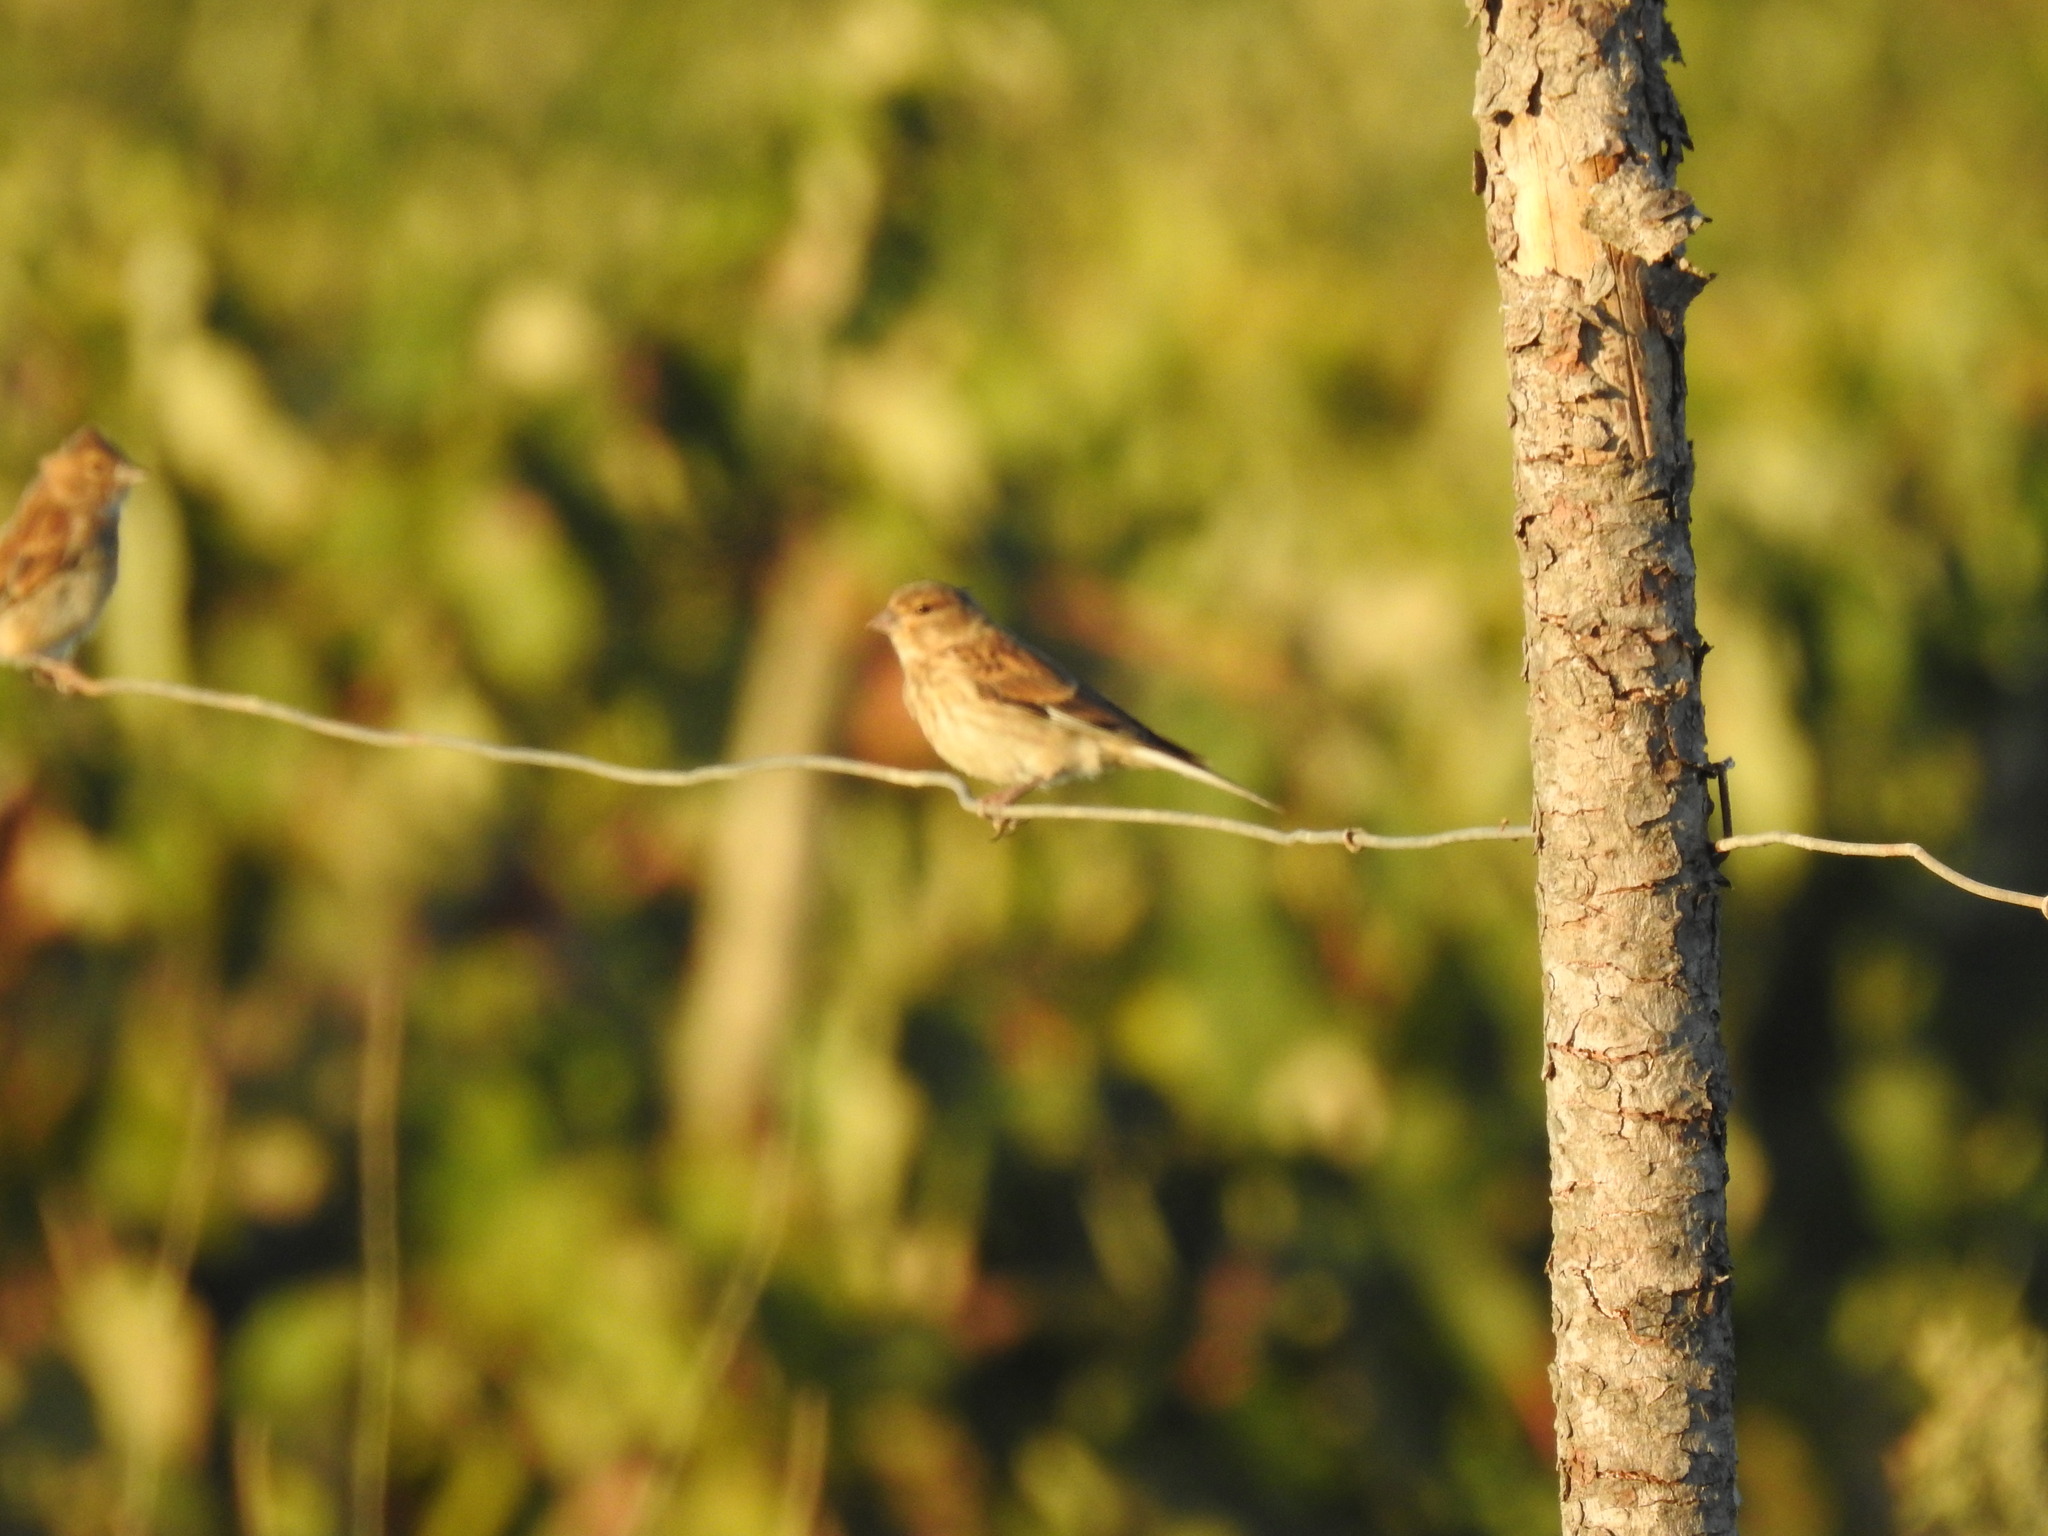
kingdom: Animalia
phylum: Chordata
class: Aves
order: Passeriformes
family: Fringillidae
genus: Linaria
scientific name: Linaria cannabina
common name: Common linnet
